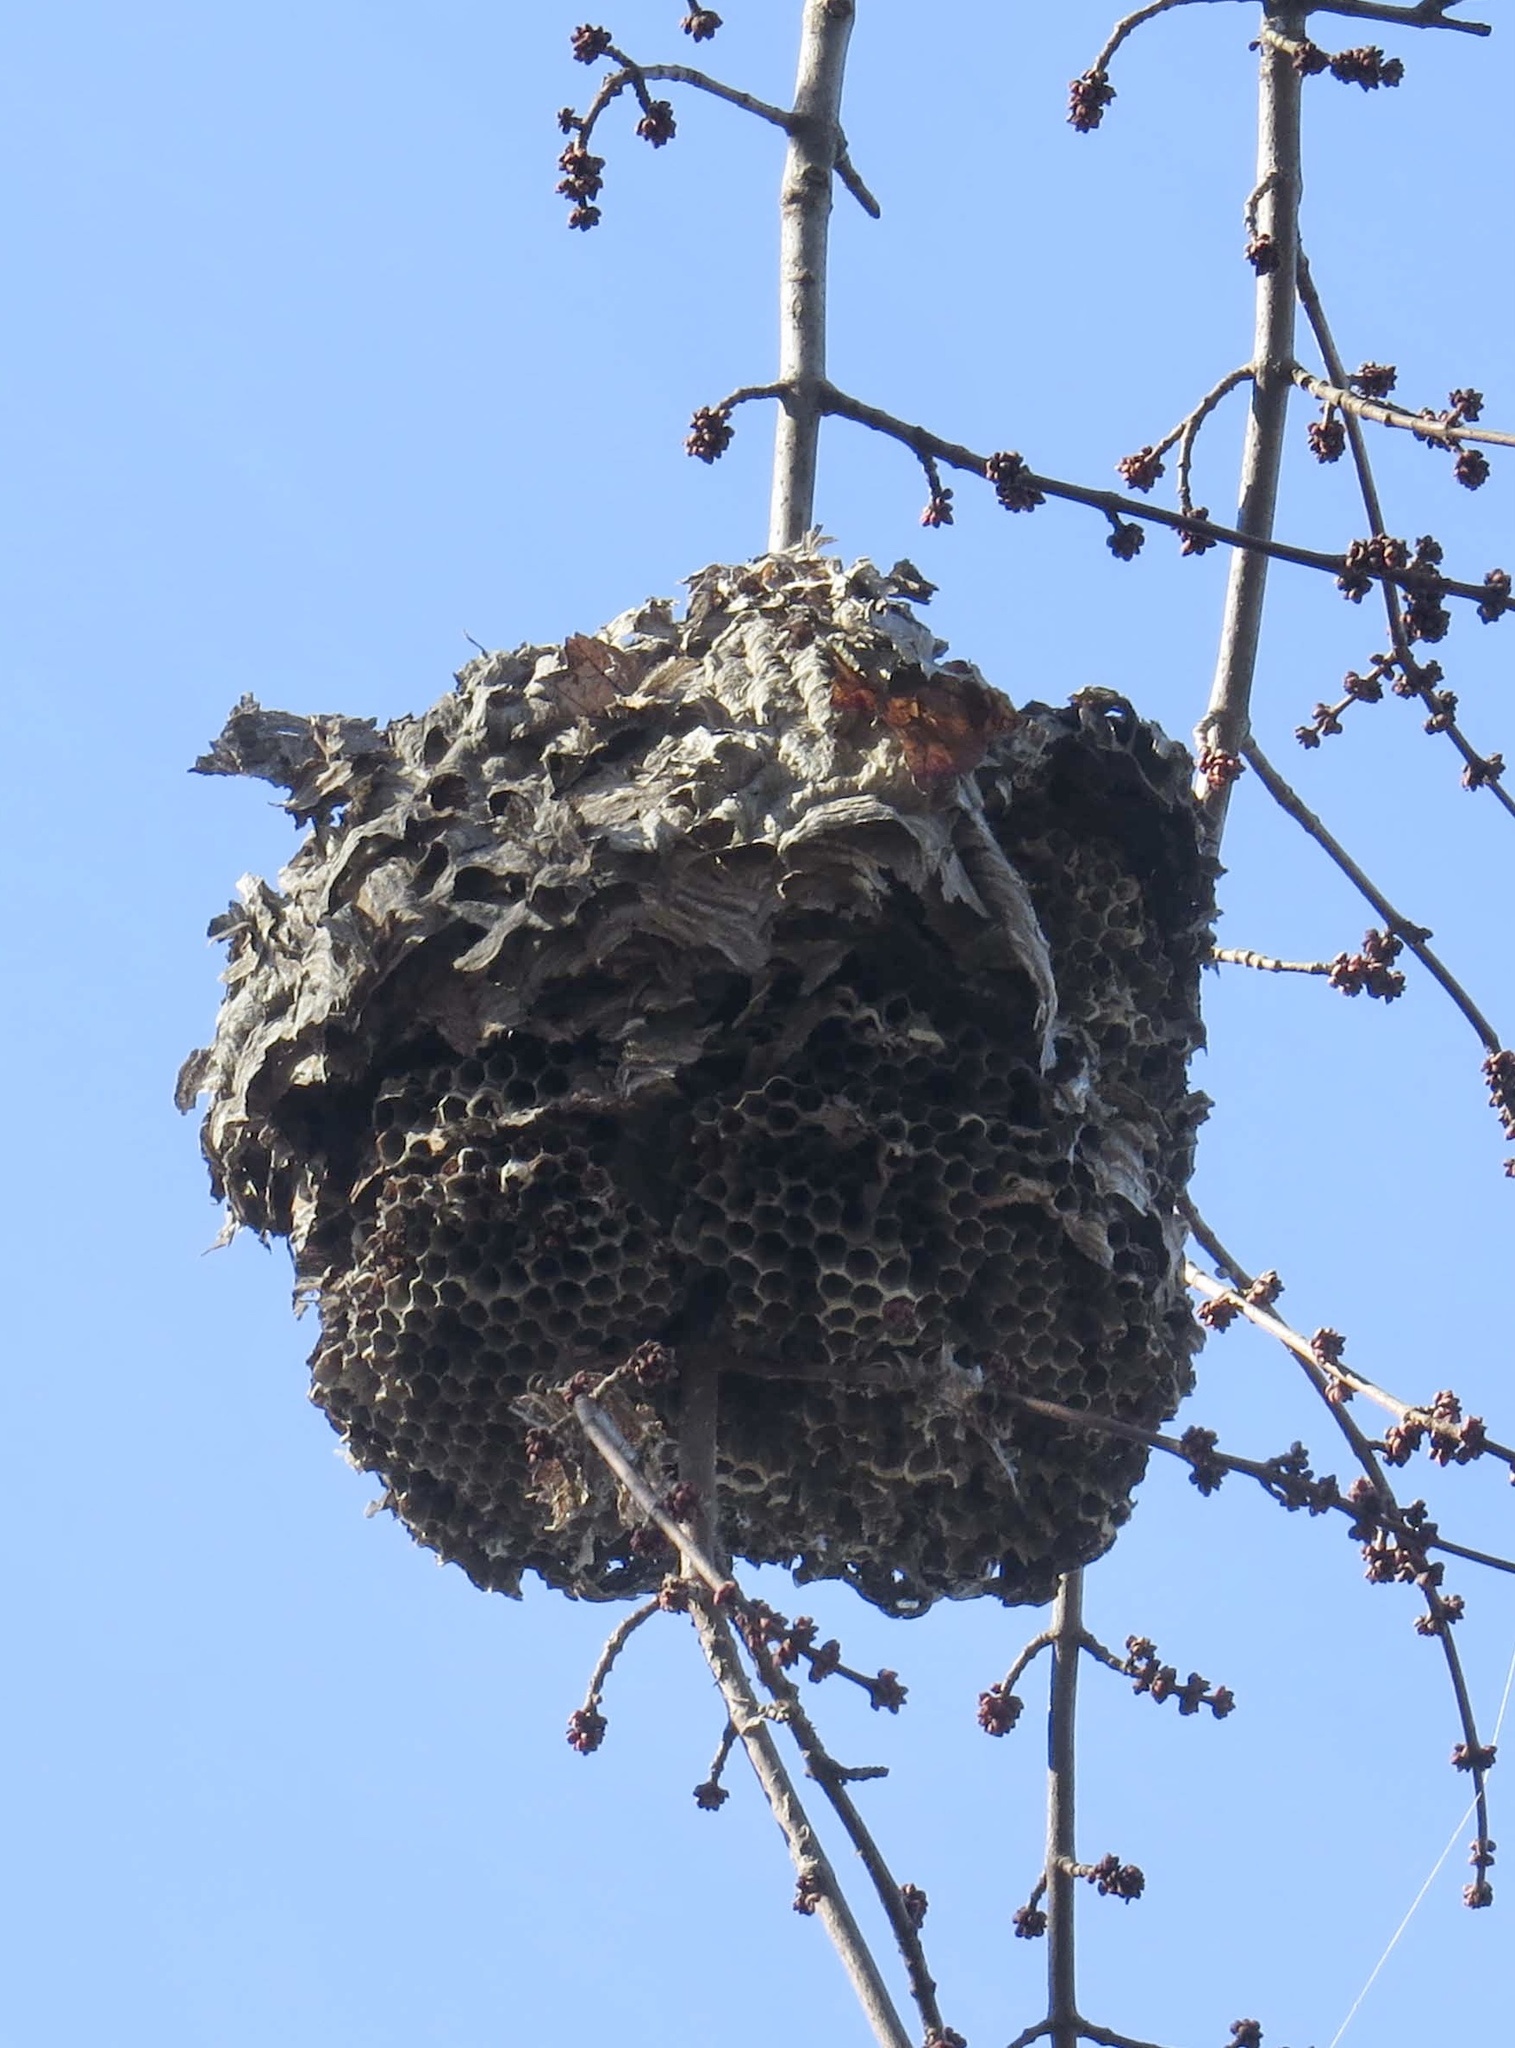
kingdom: Animalia
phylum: Arthropoda
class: Insecta
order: Hymenoptera
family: Vespidae
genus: Dolichovespula
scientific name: Dolichovespula maculata
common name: Bald-faced hornet
